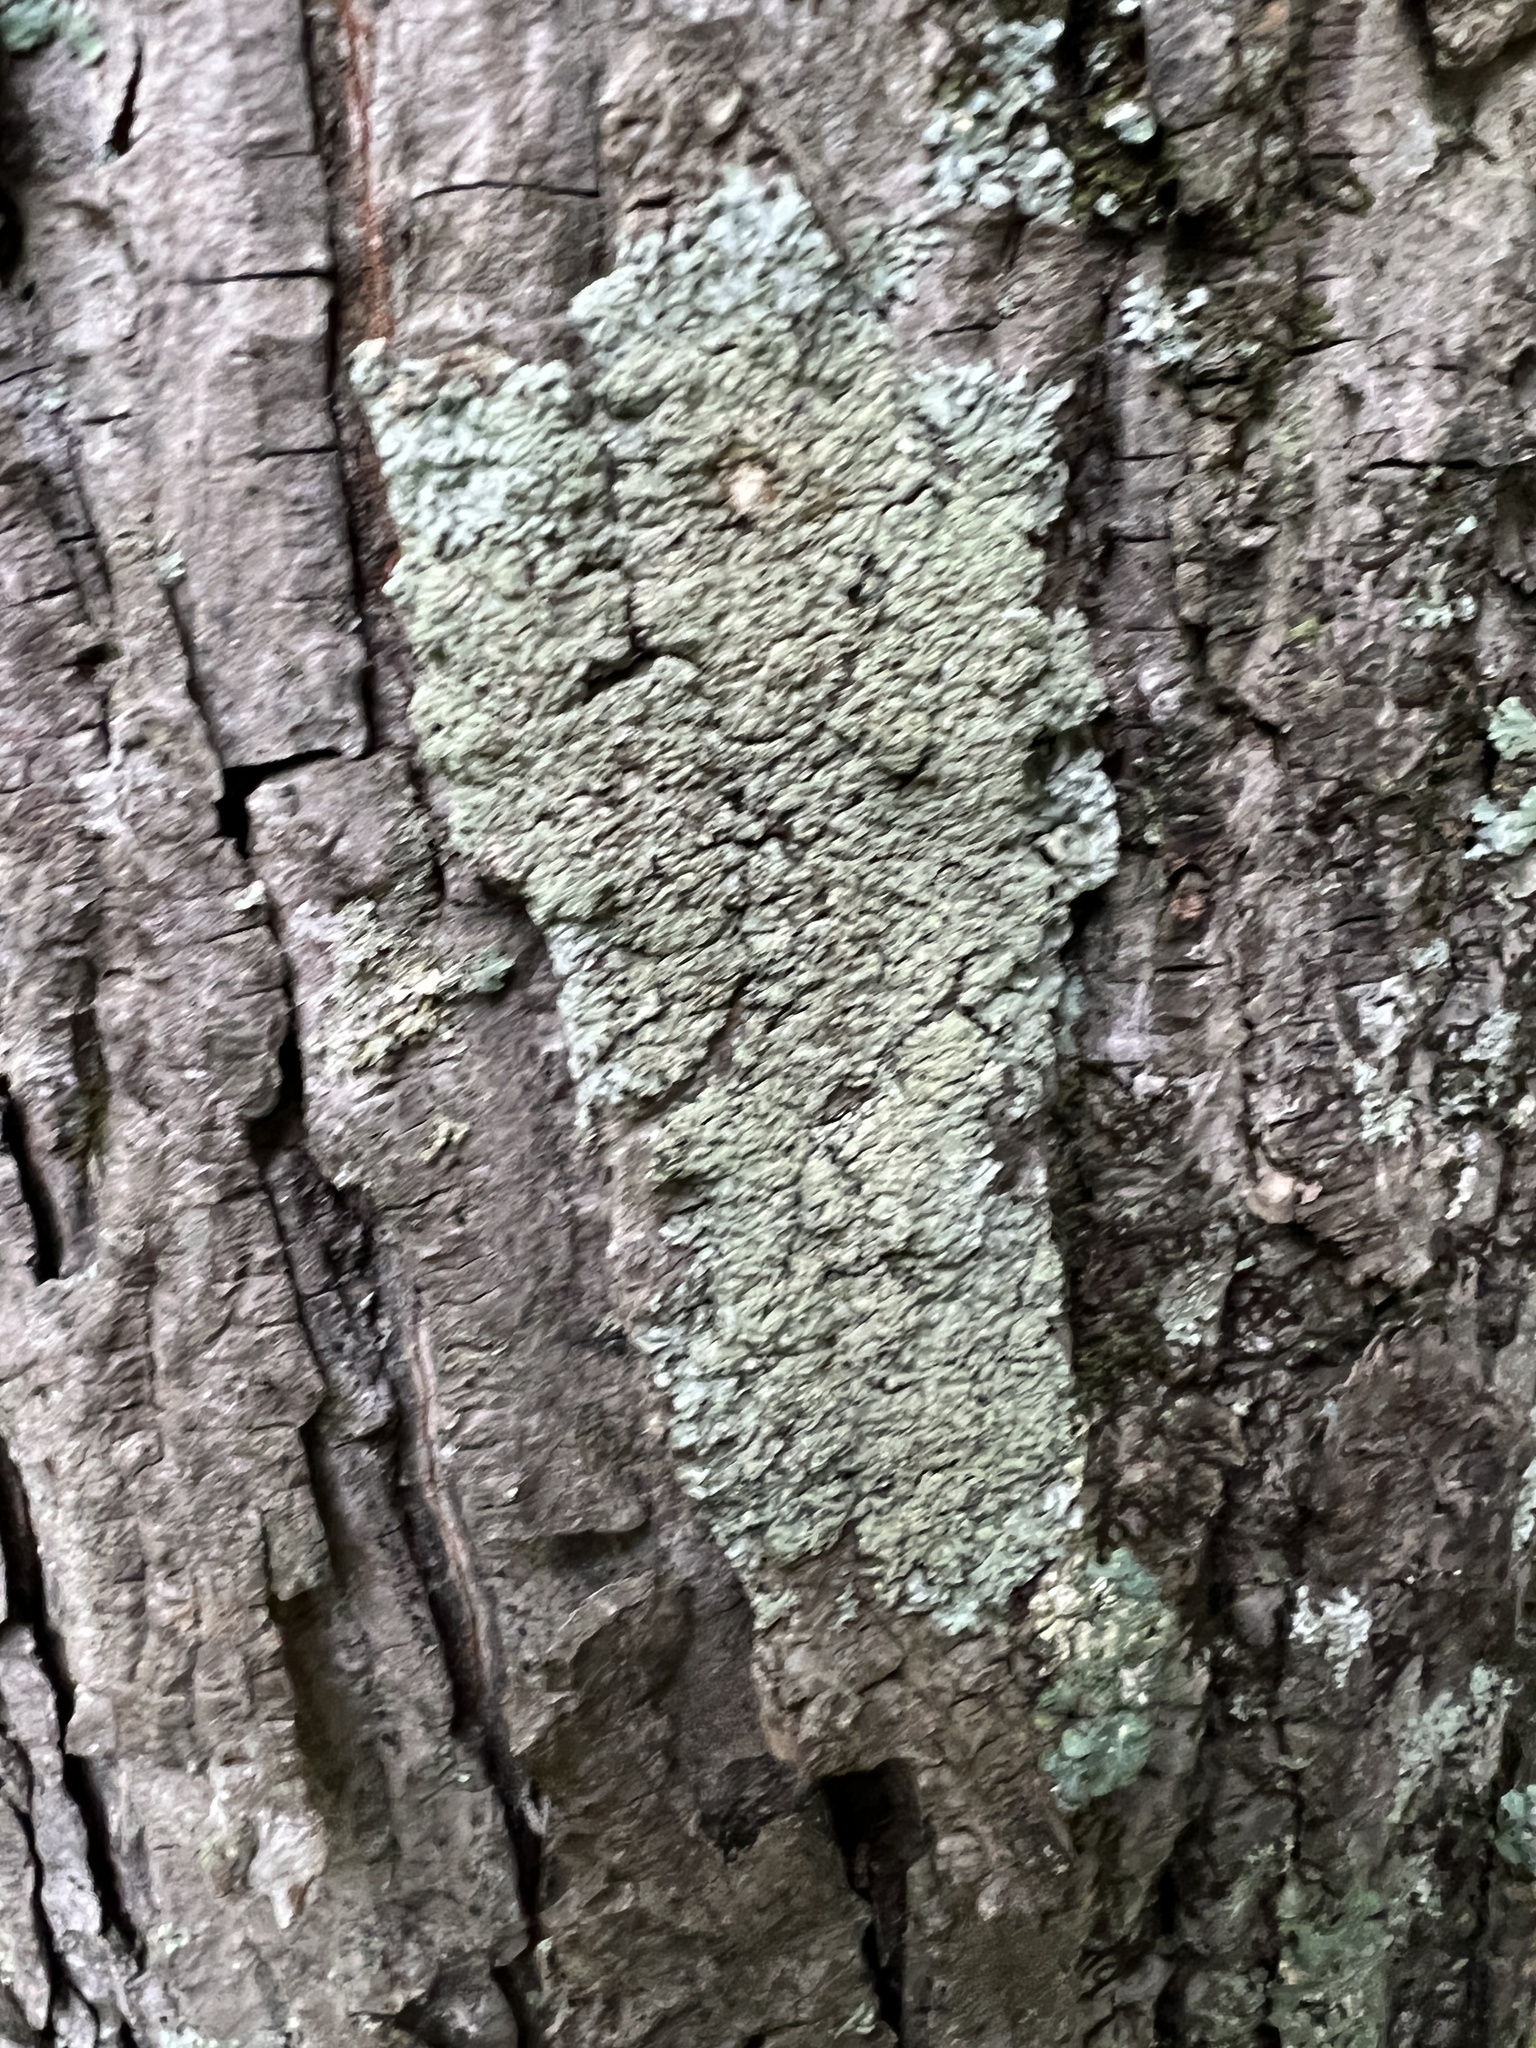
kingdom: Fungi
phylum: Ascomycota
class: Lecanoromycetes
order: Caliciales
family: Caliciaceae
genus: Pyxine
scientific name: Pyxine subcinerea
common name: Mustard lichen
